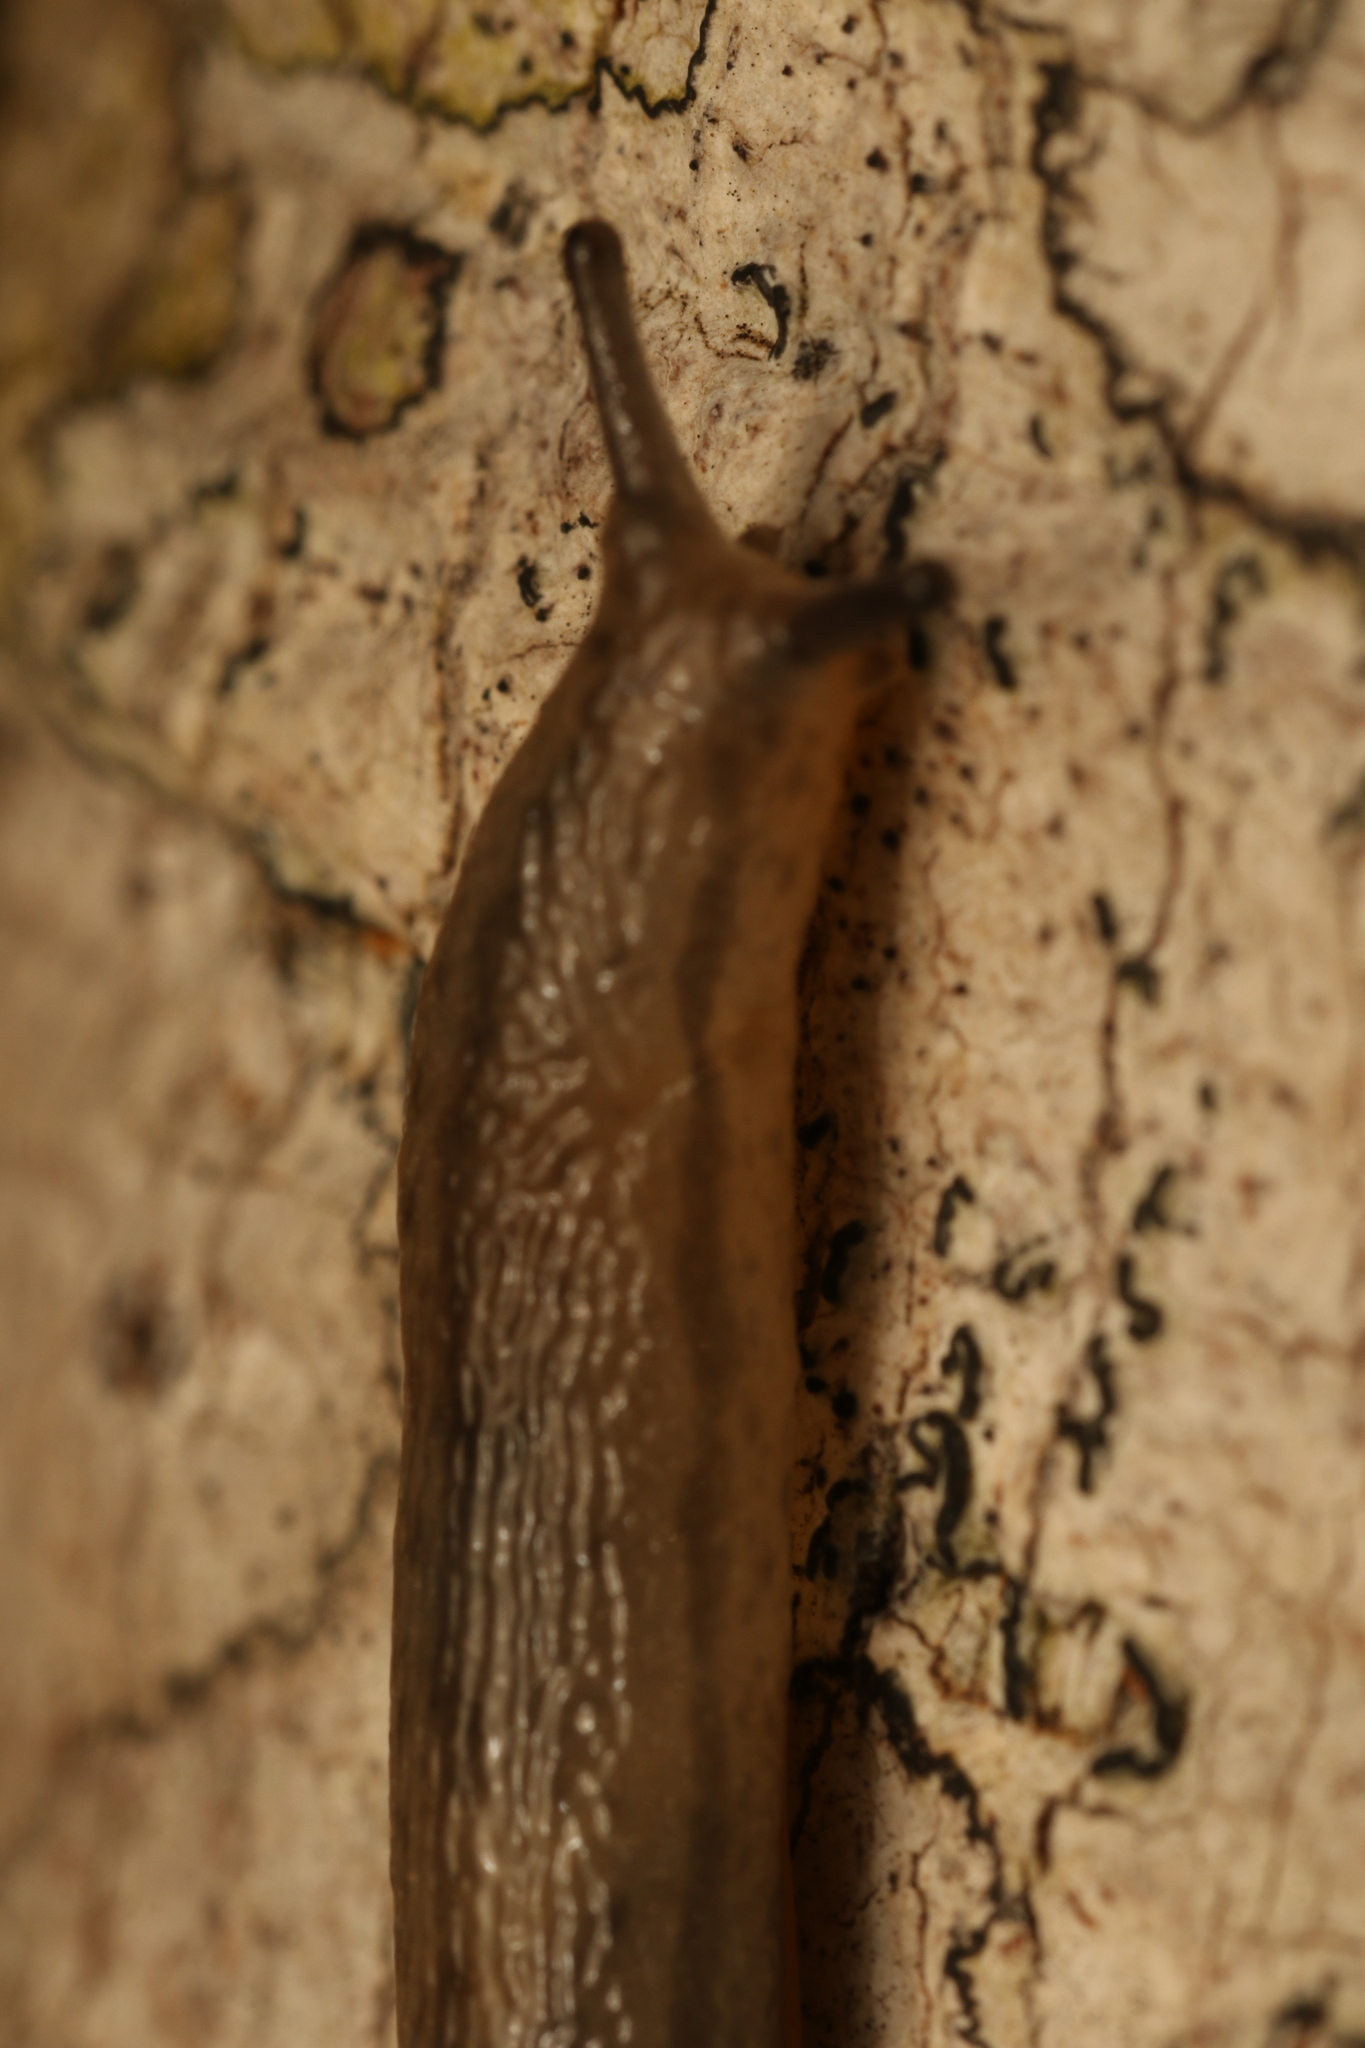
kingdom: Animalia
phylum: Mollusca
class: Gastropoda
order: Stylommatophora
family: Philomycidae
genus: Meghimatium
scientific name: Meghimatium pictum
